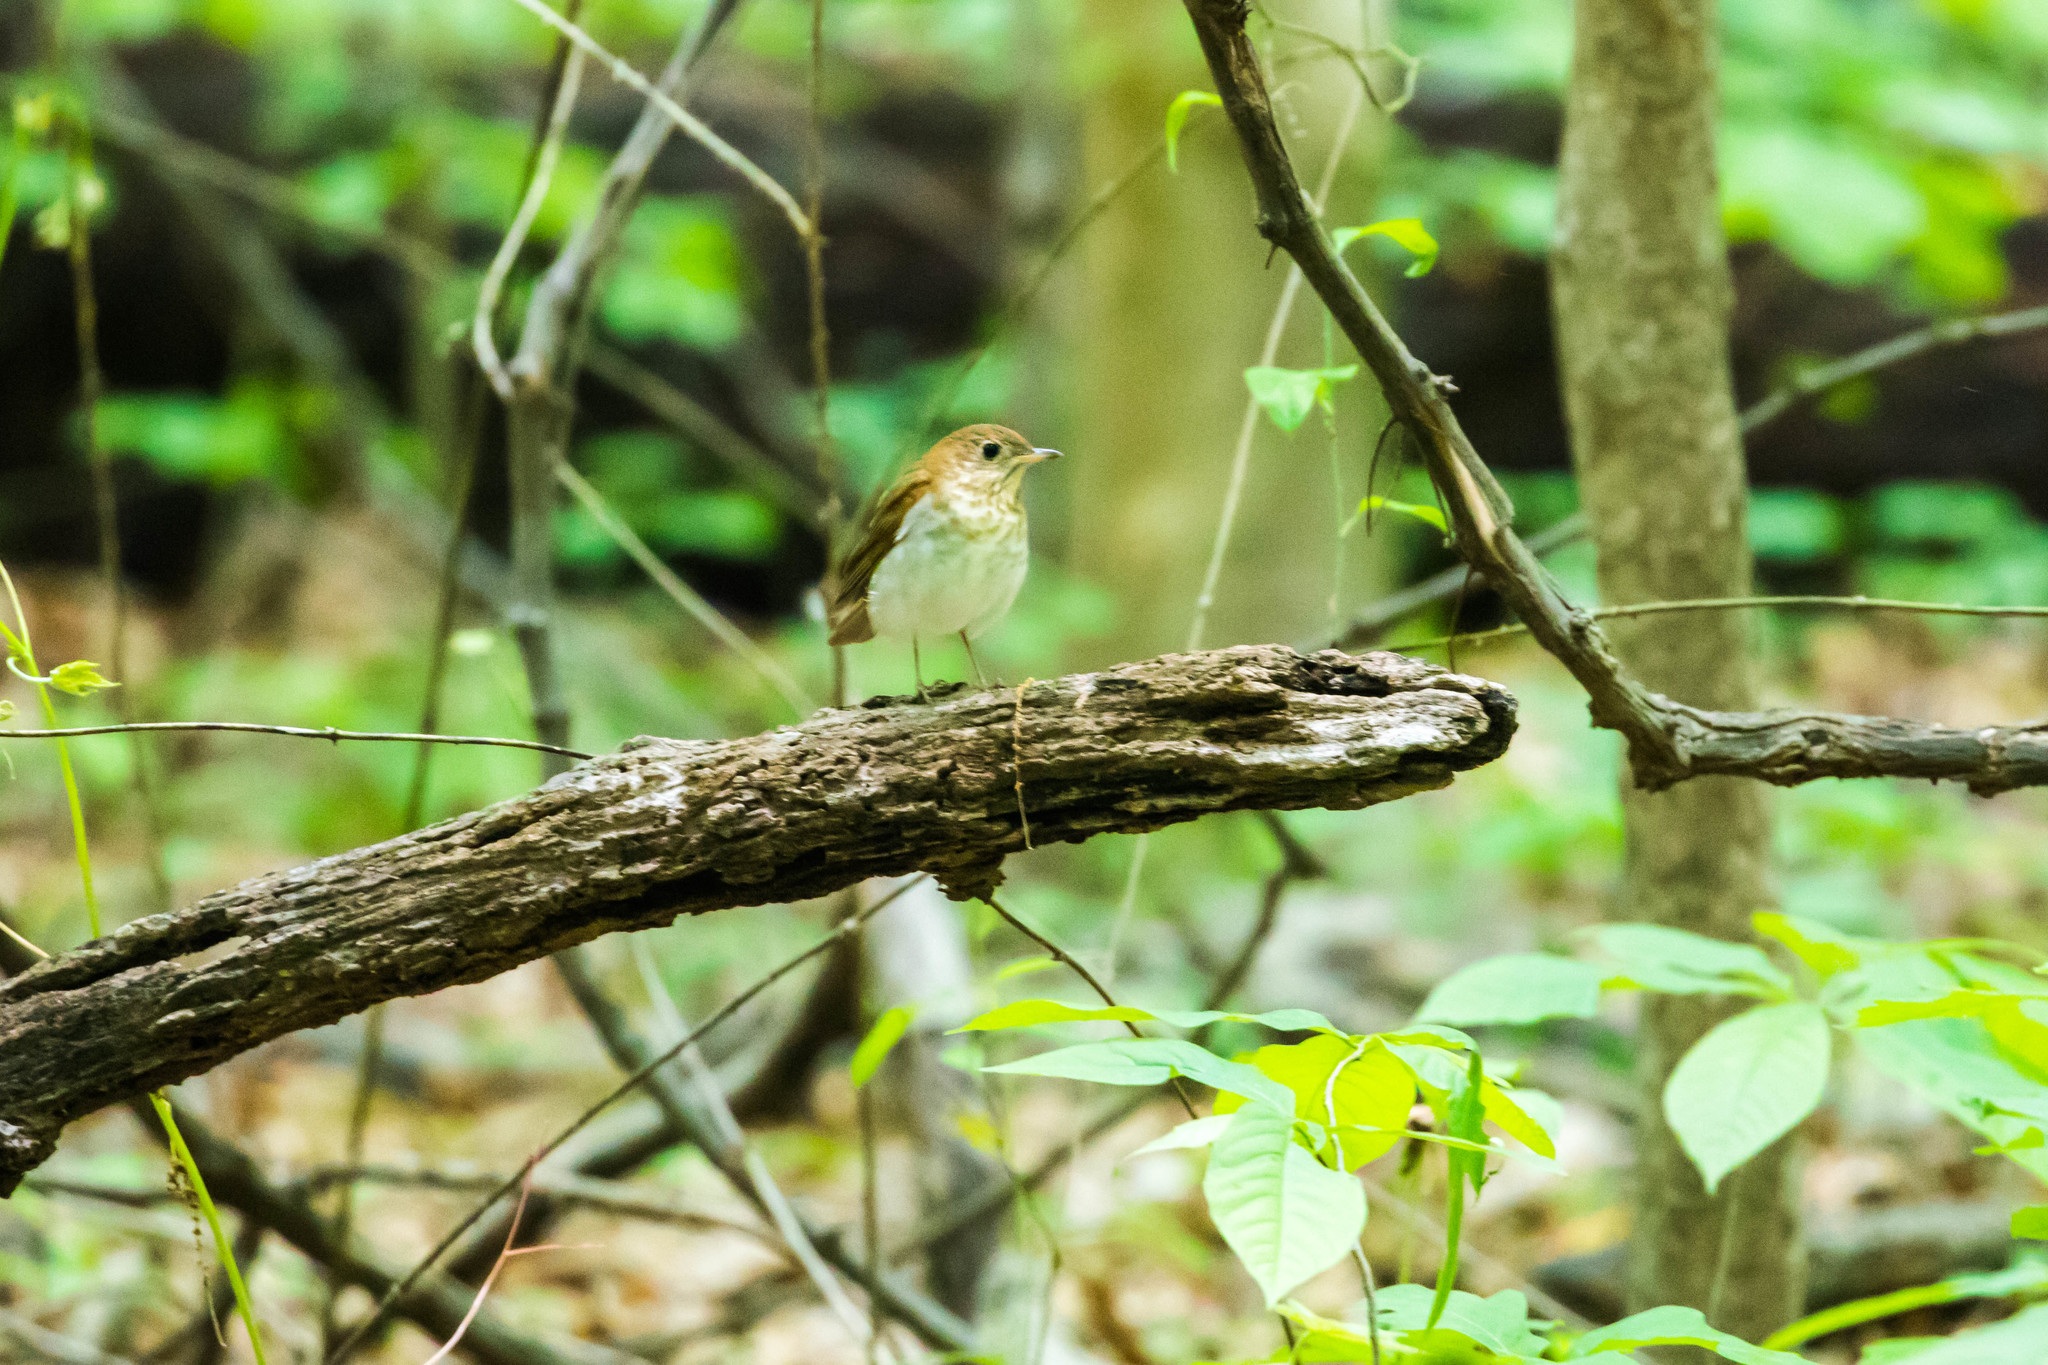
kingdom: Animalia
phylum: Chordata
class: Aves
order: Passeriformes
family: Turdidae
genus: Catharus
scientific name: Catharus fuscescens
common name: Veery
